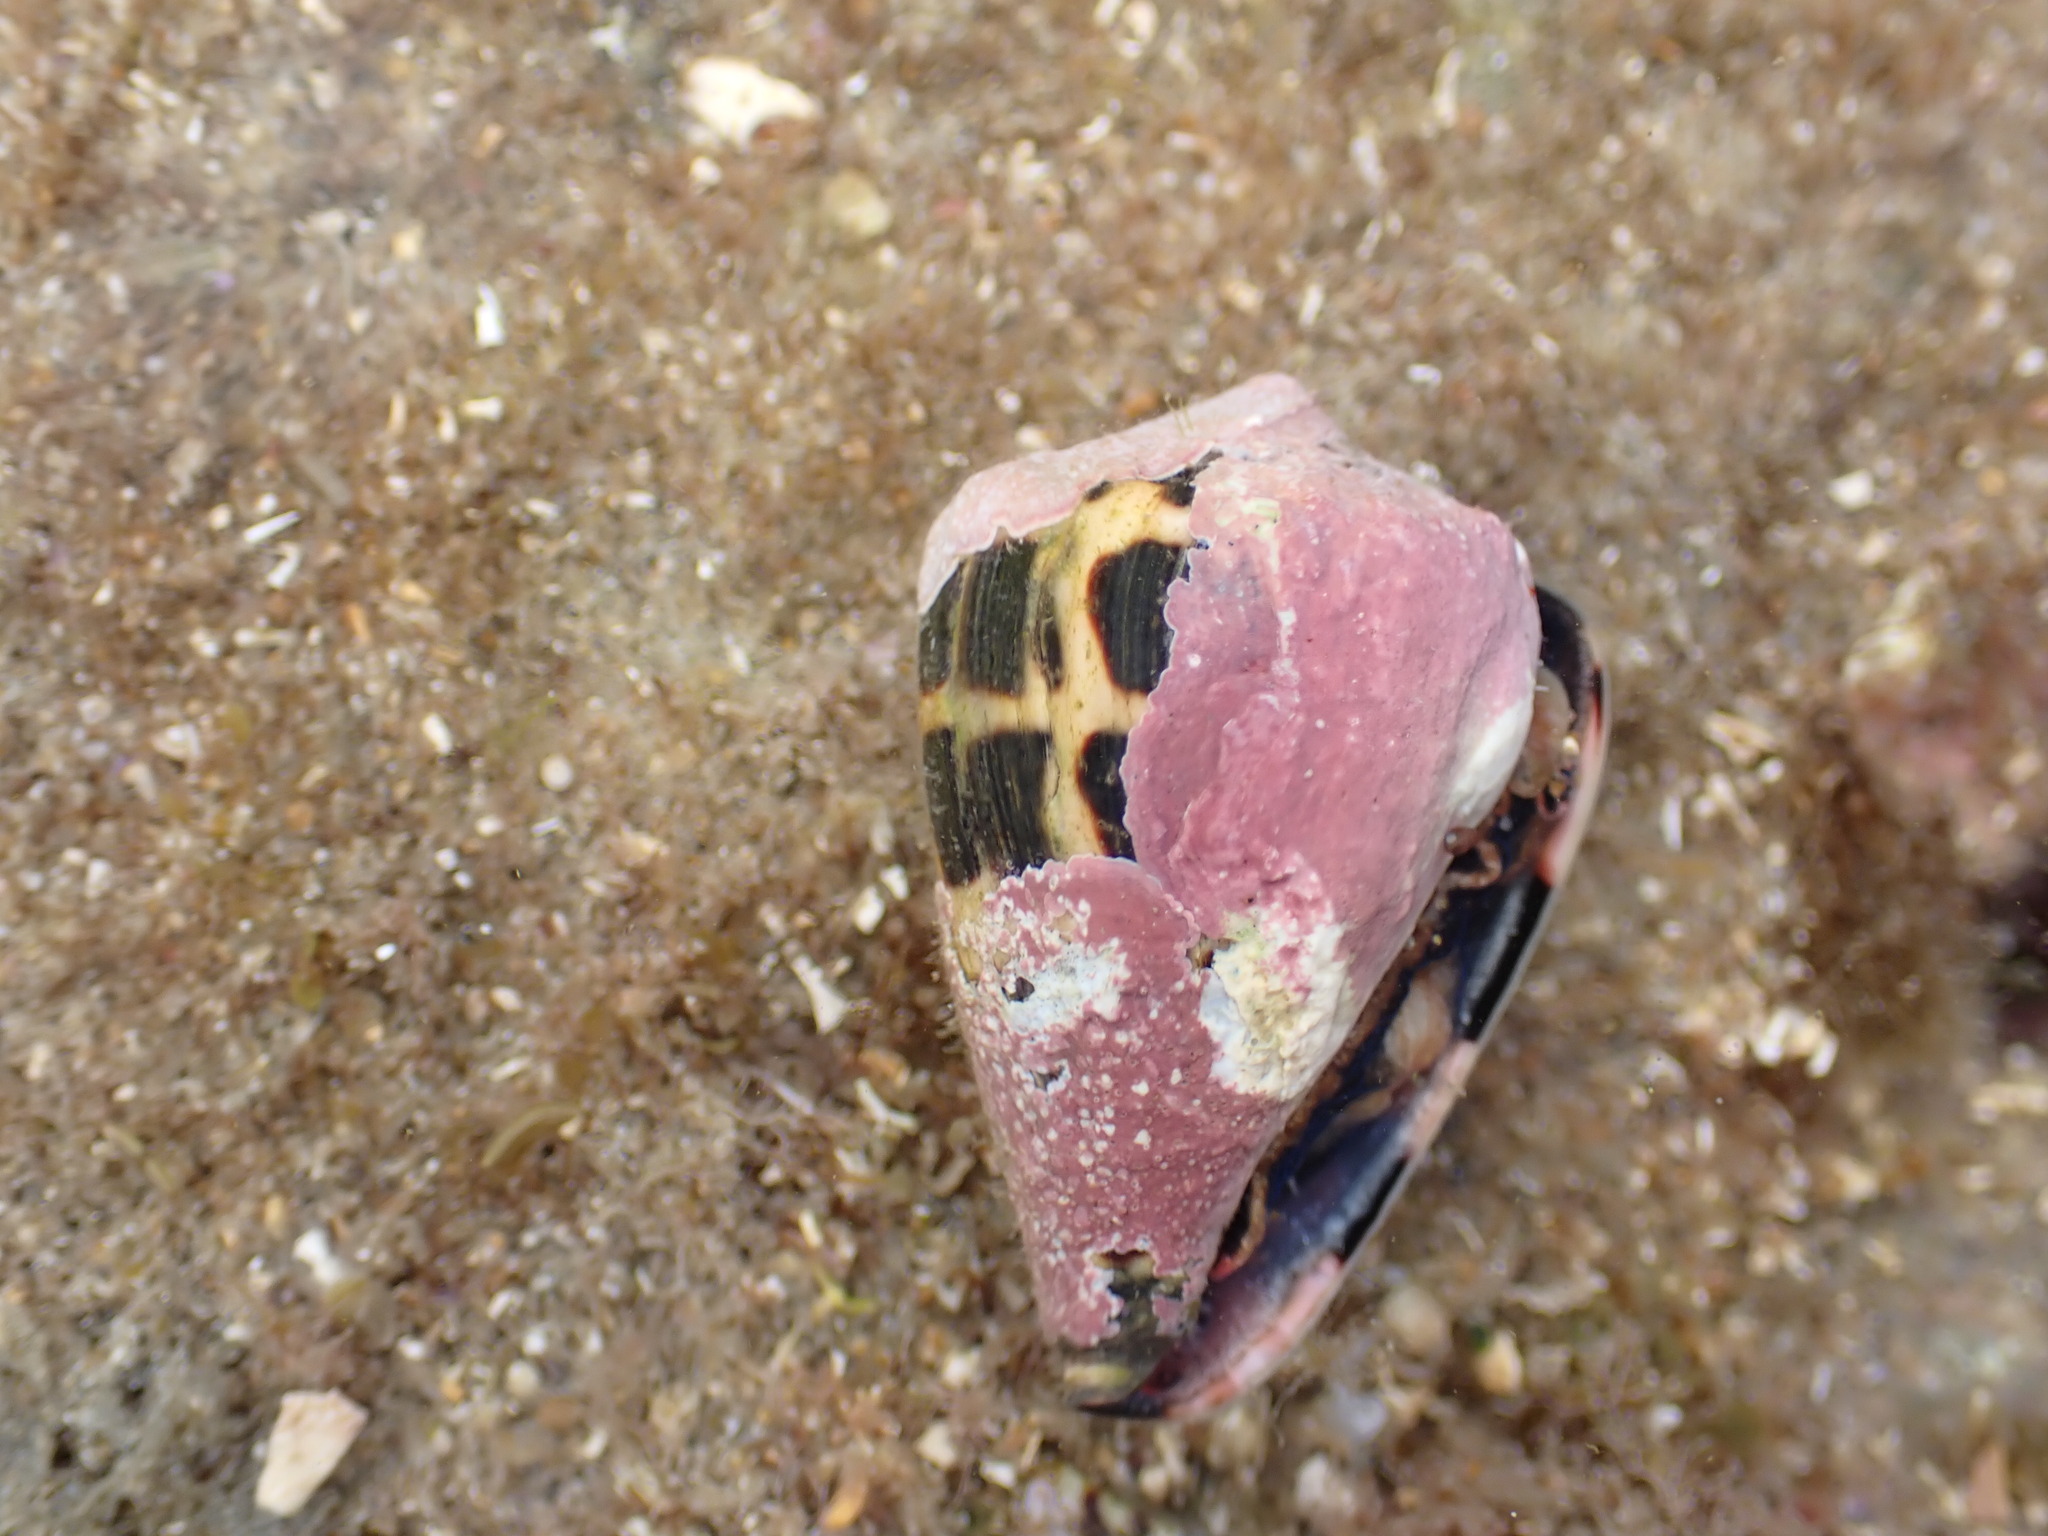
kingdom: Animalia
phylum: Mollusca
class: Gastropoda
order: Neogastropoda
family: Conidae
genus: Conus
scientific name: Conus ebraeus
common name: Hebrew cone
